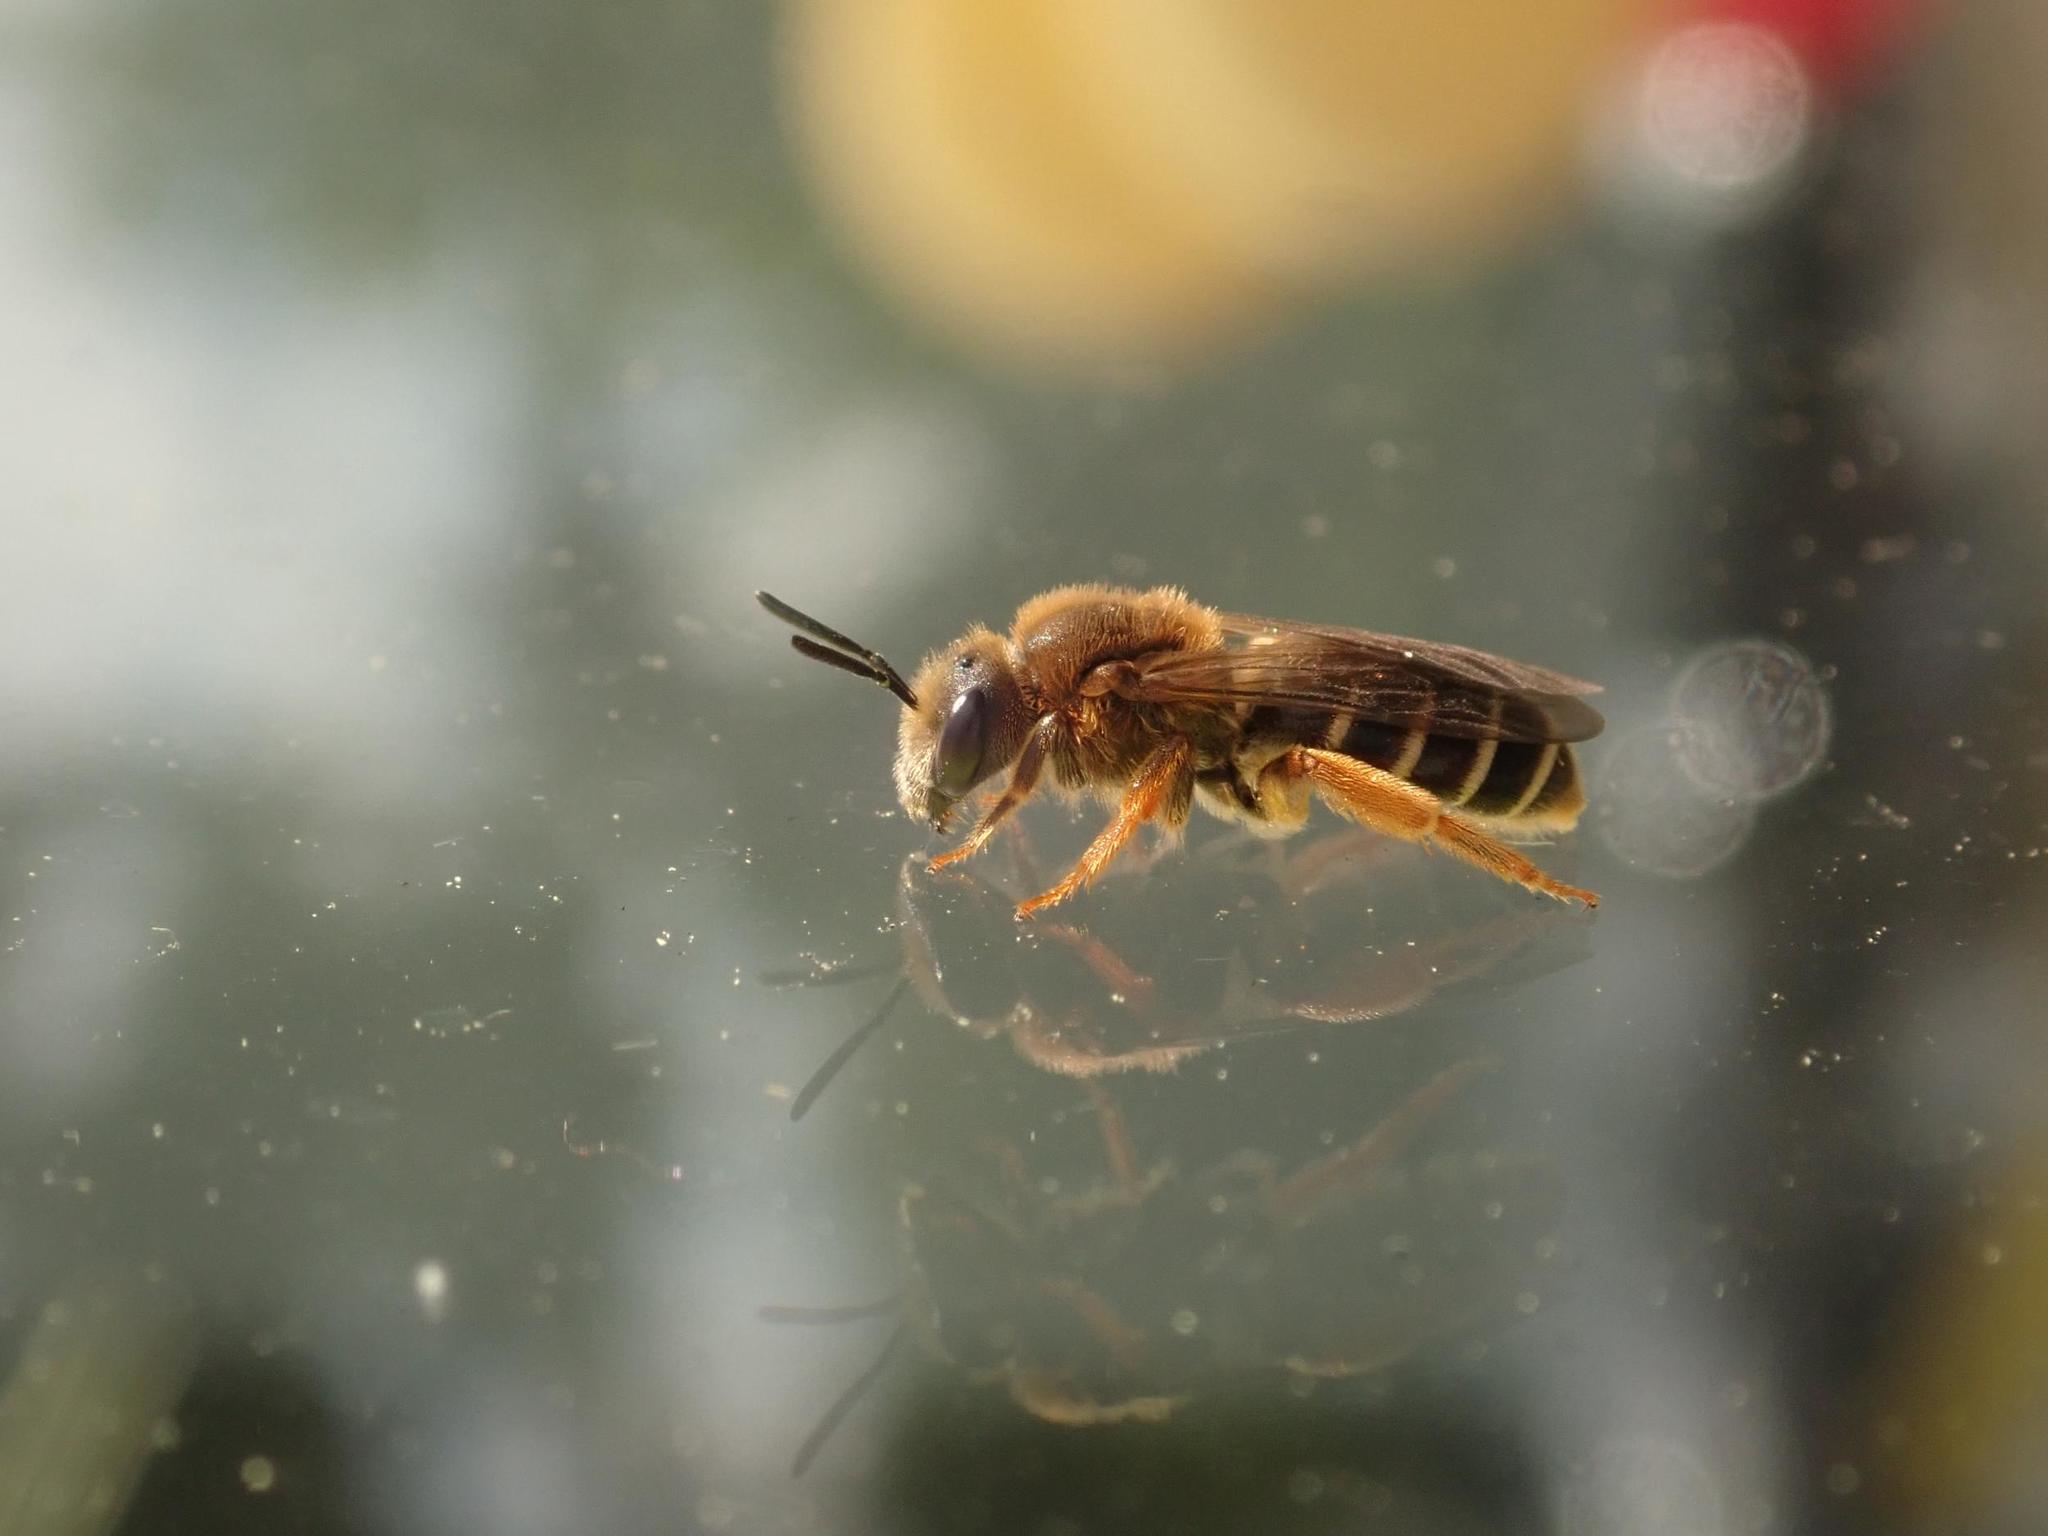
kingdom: Animalia
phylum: Arthropoda
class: Insecta
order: Hymenoptera
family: Halictidae
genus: Halictus
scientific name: Halictus rubicundus
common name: Orange-legged furrow bee
